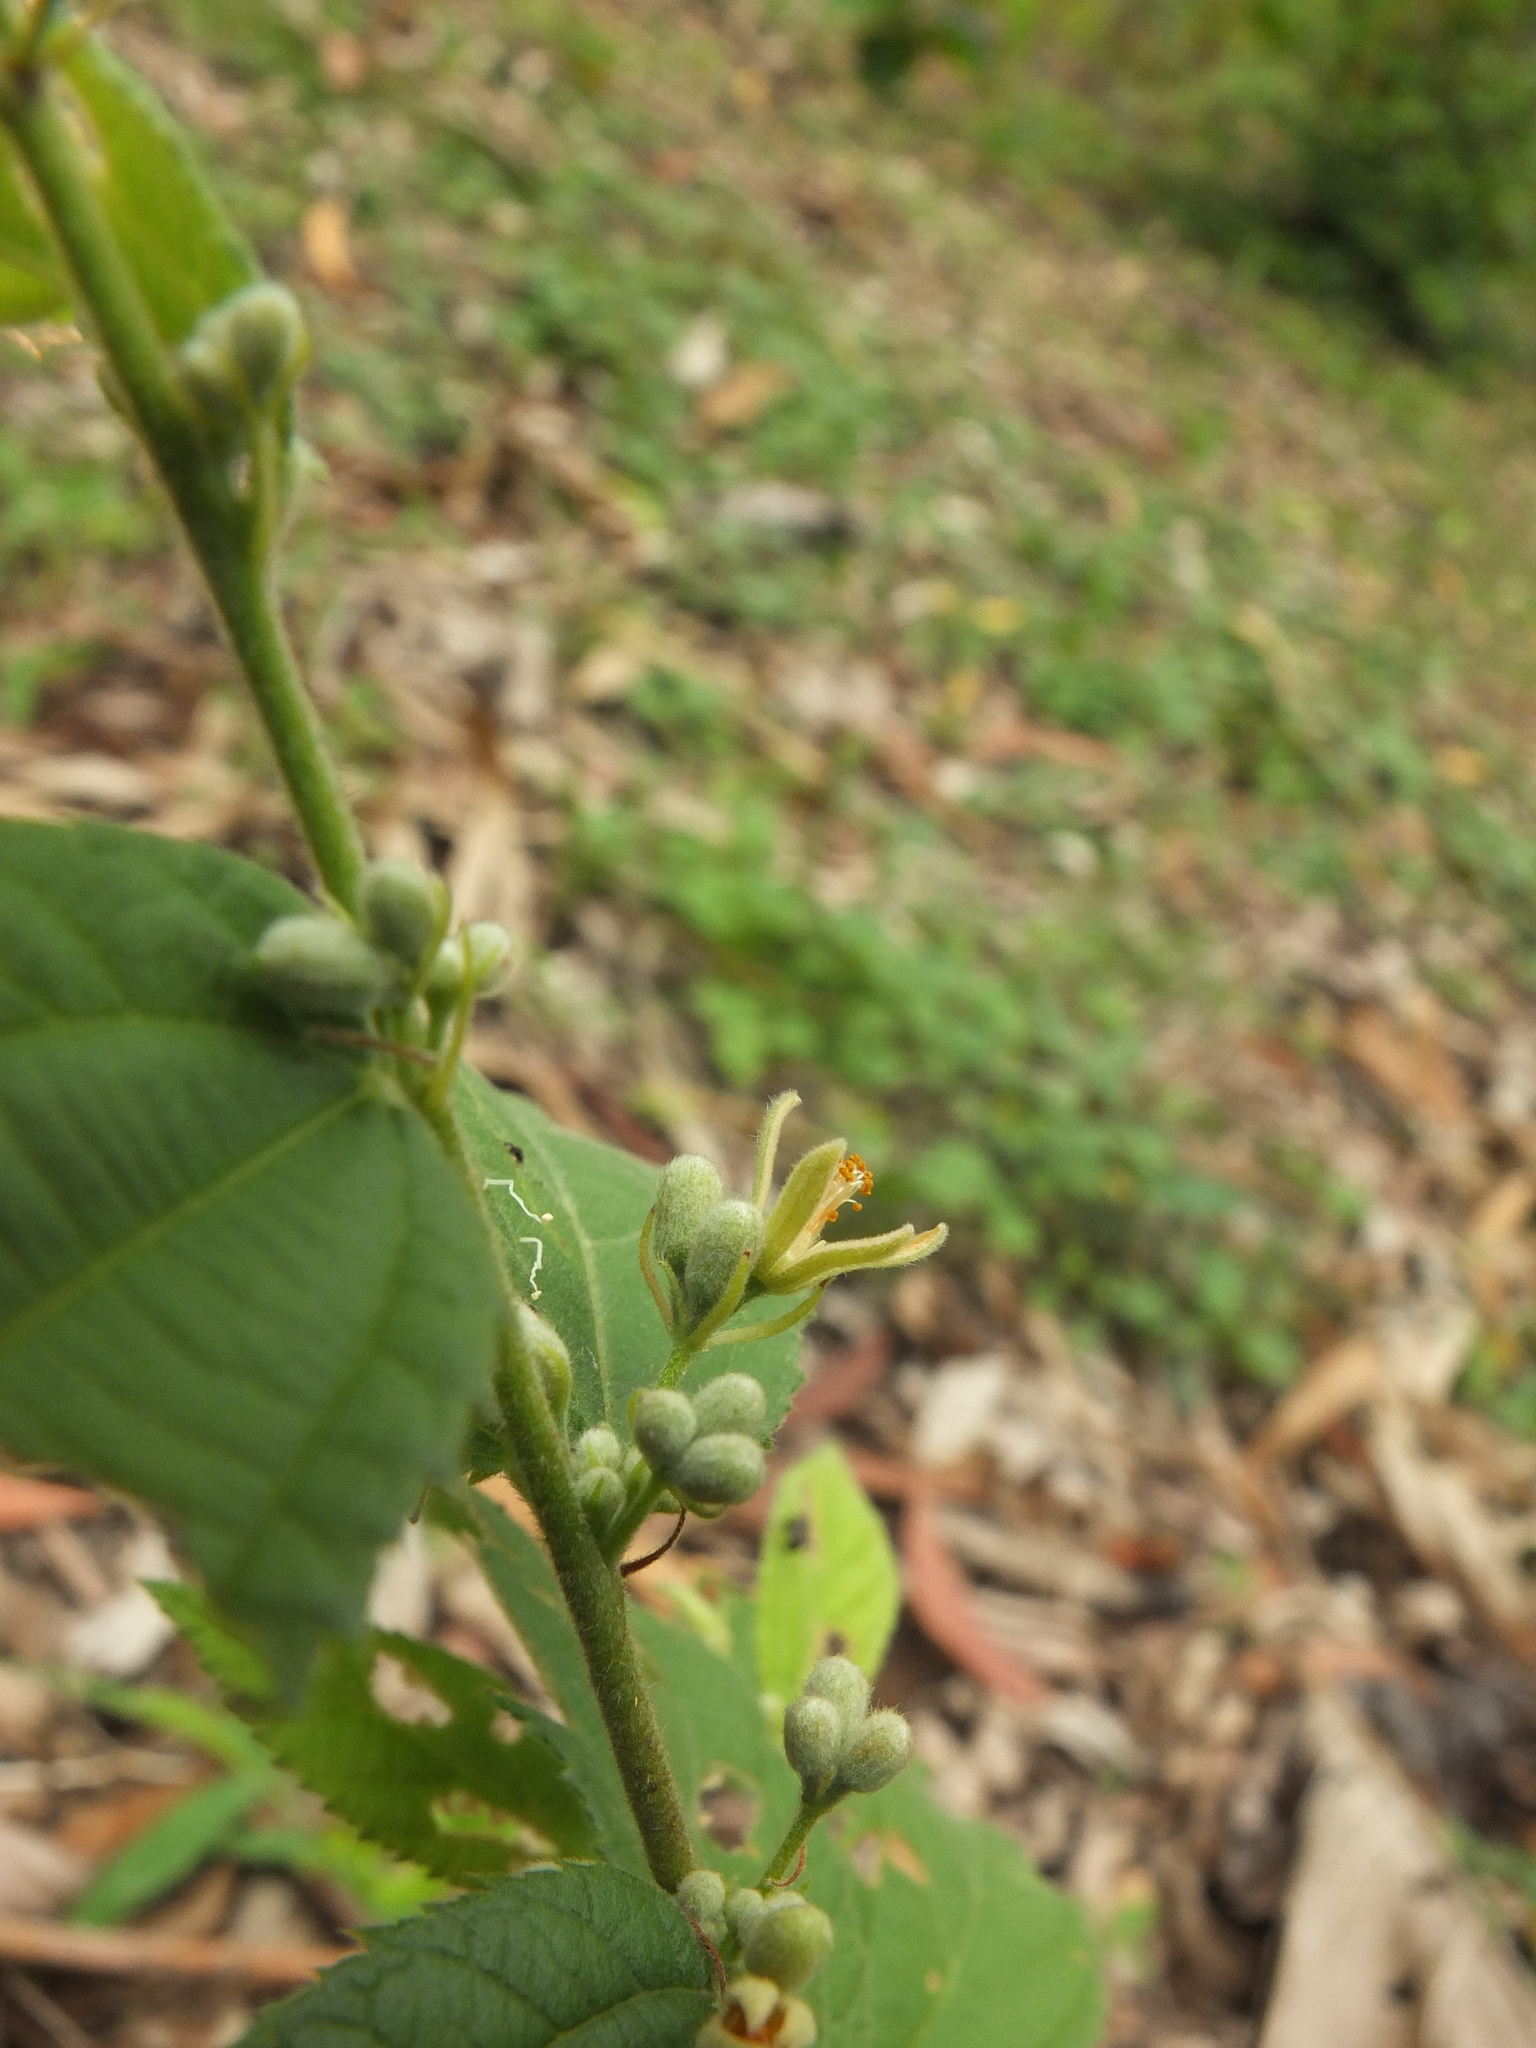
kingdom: Plantae
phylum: Tracheophyta
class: Magnoliopsida
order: Malvales
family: Malvaceae
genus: Grewia
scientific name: Grewia hirsuta
